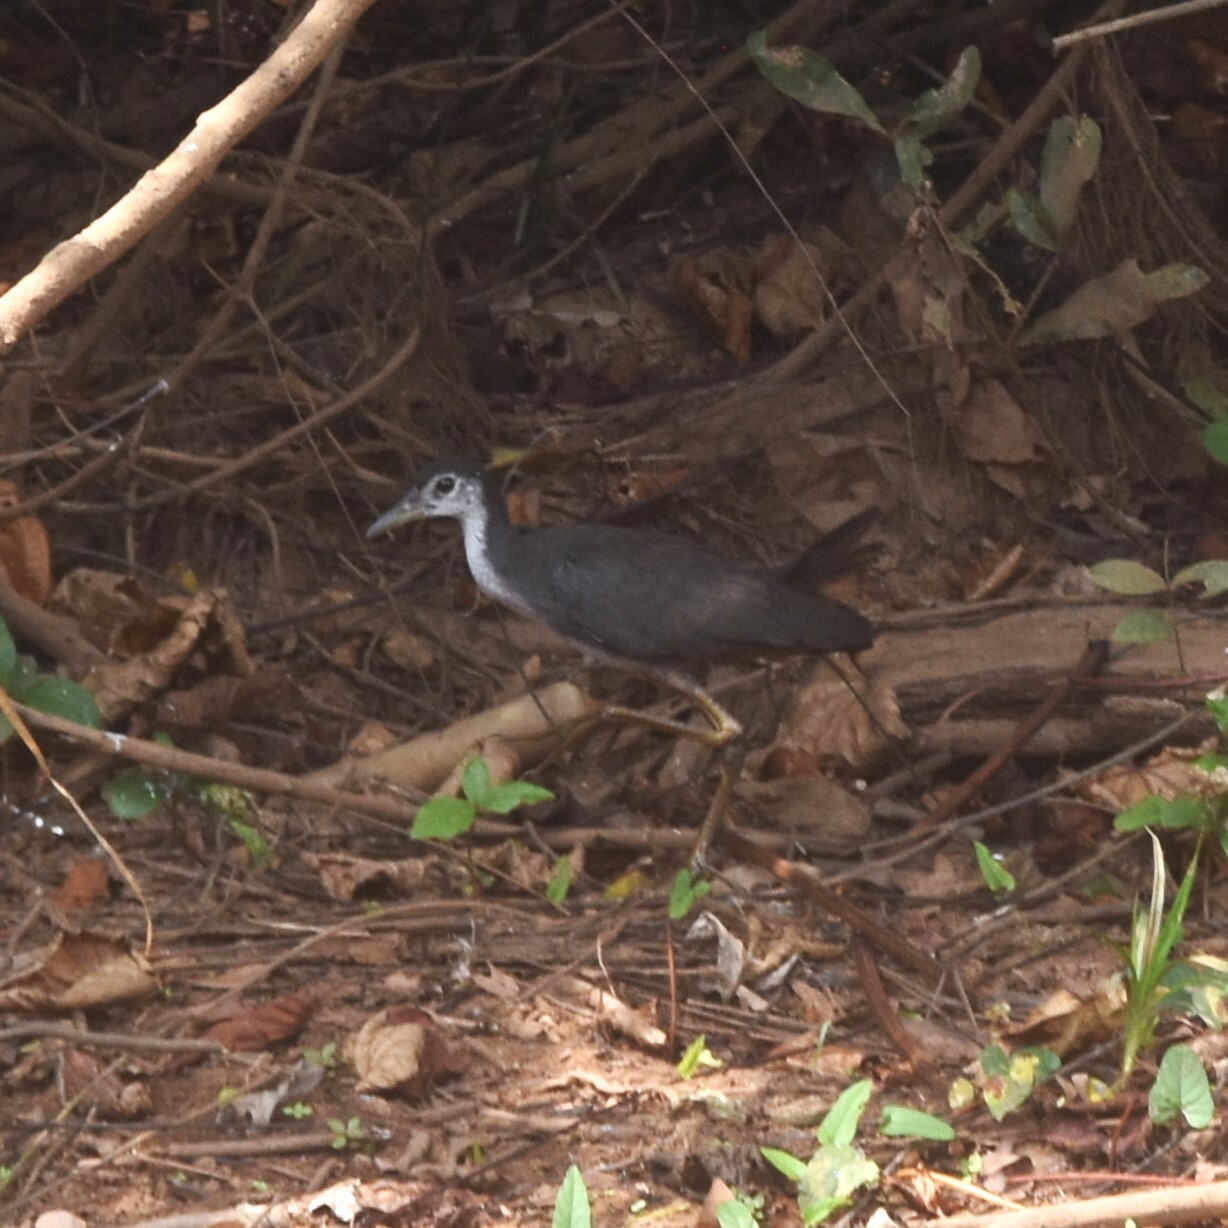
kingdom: Animalia
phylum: Chordata
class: Aves
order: Gruiformes
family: Rallidae
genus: Amaurornis
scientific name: Amaurornis phoenicurus
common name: White-breasted waterhen
